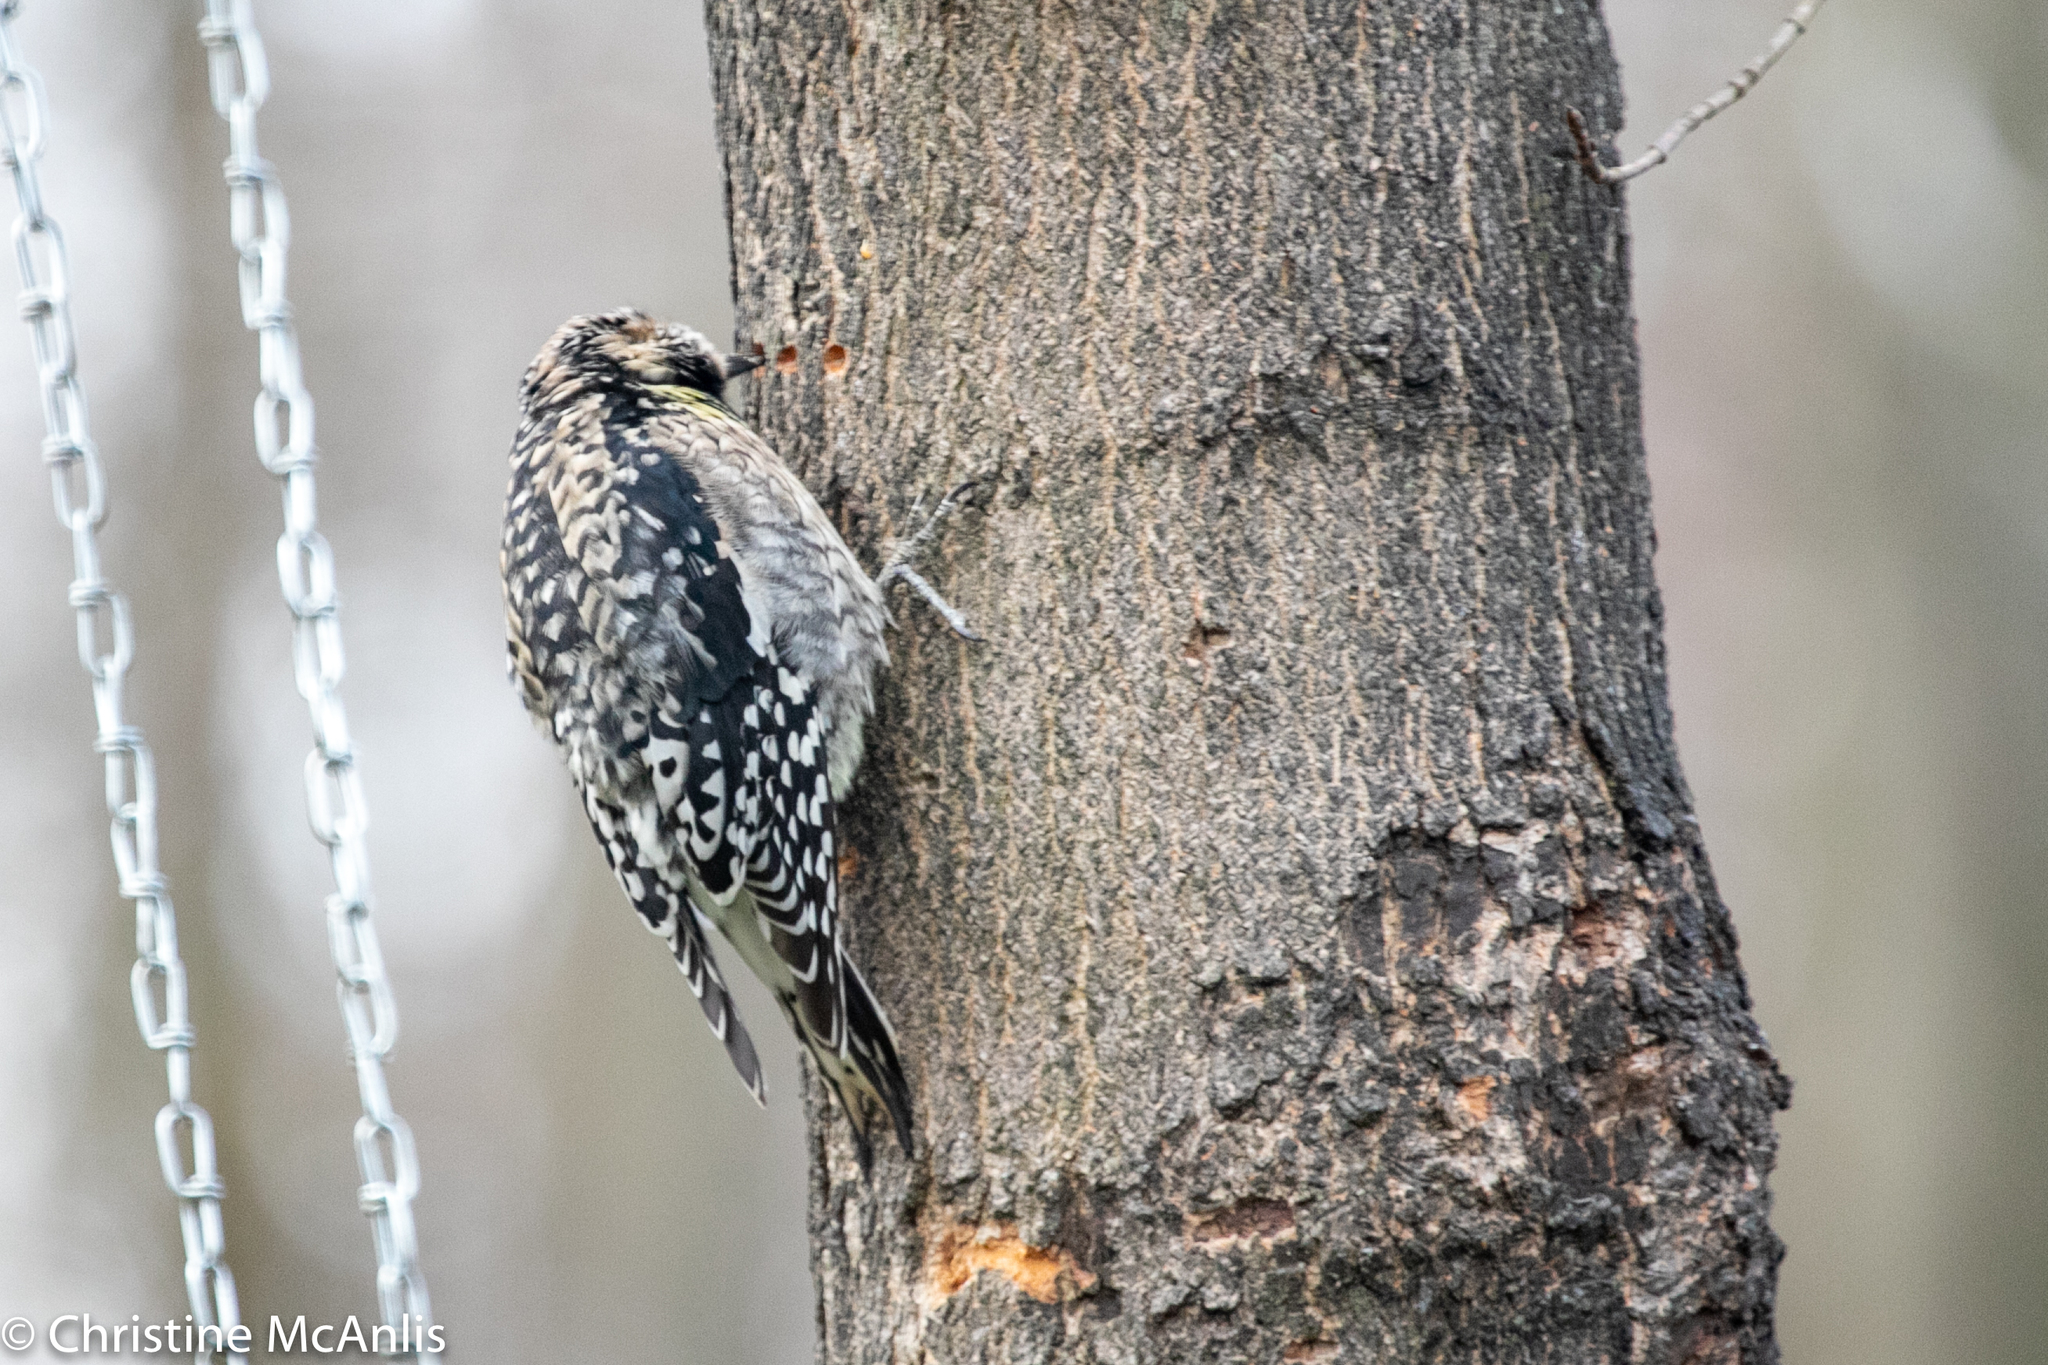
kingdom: Animalia
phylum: Chordata
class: Aves
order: Piciformes
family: Picidae
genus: Sphyrapicus
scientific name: Sphyrapicus varius
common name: Yellow-bellied sapsucker
